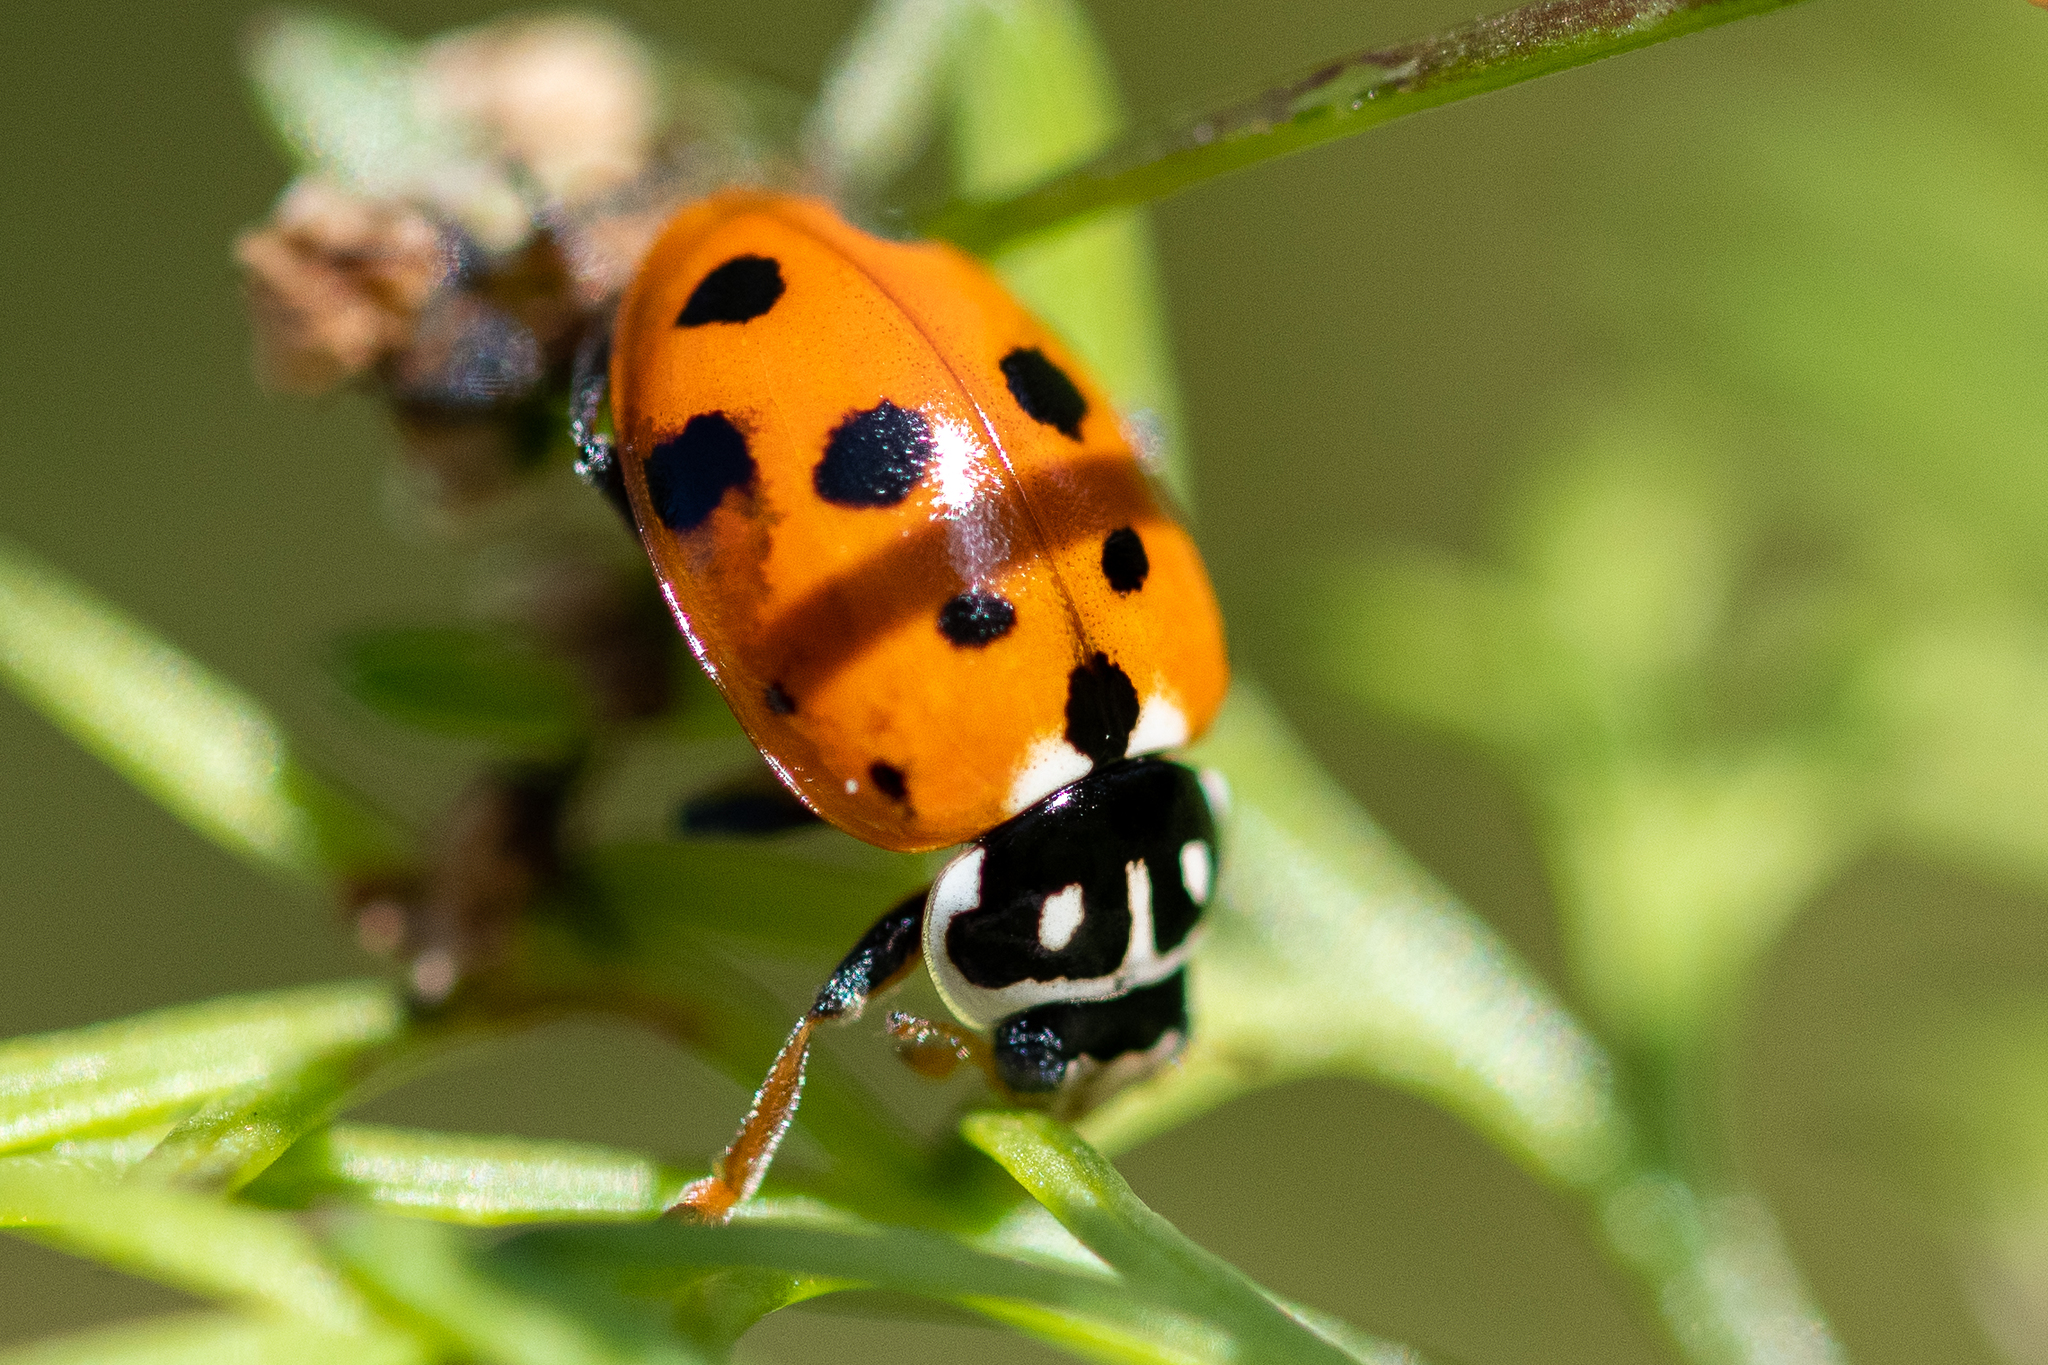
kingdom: Animalia
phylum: Arthropoda
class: Insecta
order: Coleoptera
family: Coccinellidae
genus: Hippodamia
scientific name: Hippodamia variegata
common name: Ladybird beetle
